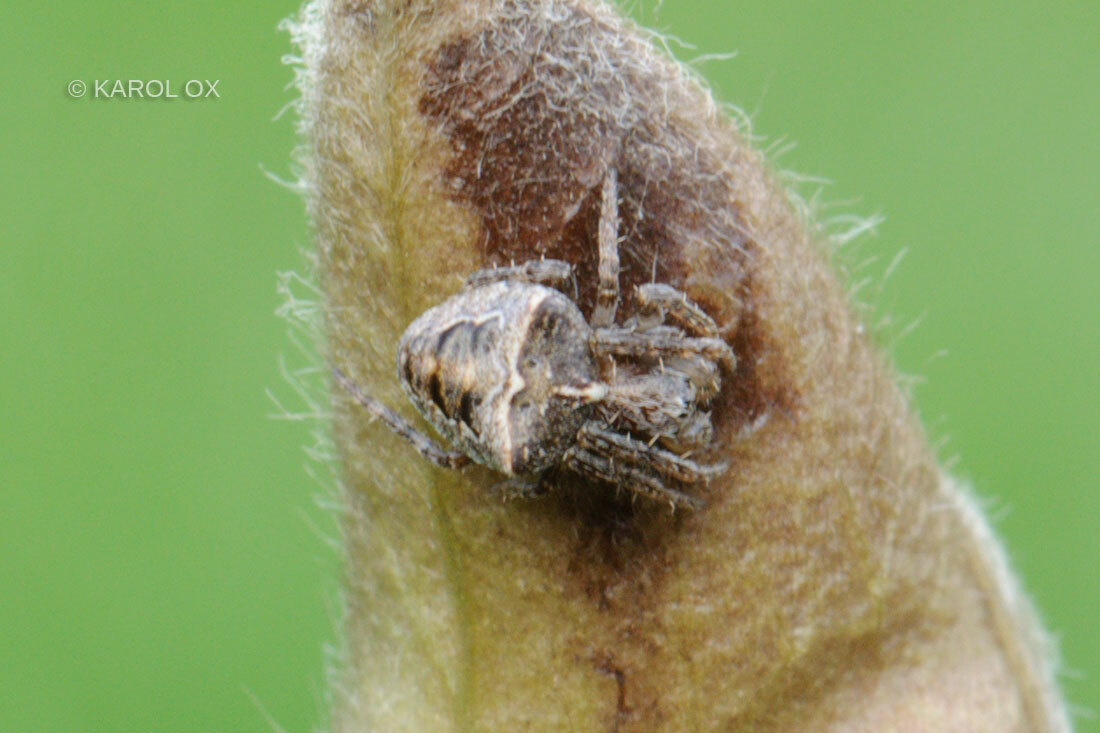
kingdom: Animalia
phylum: Arthropoda
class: Arachnida
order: Araneae
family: Araneidae
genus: Gibbaranea
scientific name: Gibbaranea bituberculata
